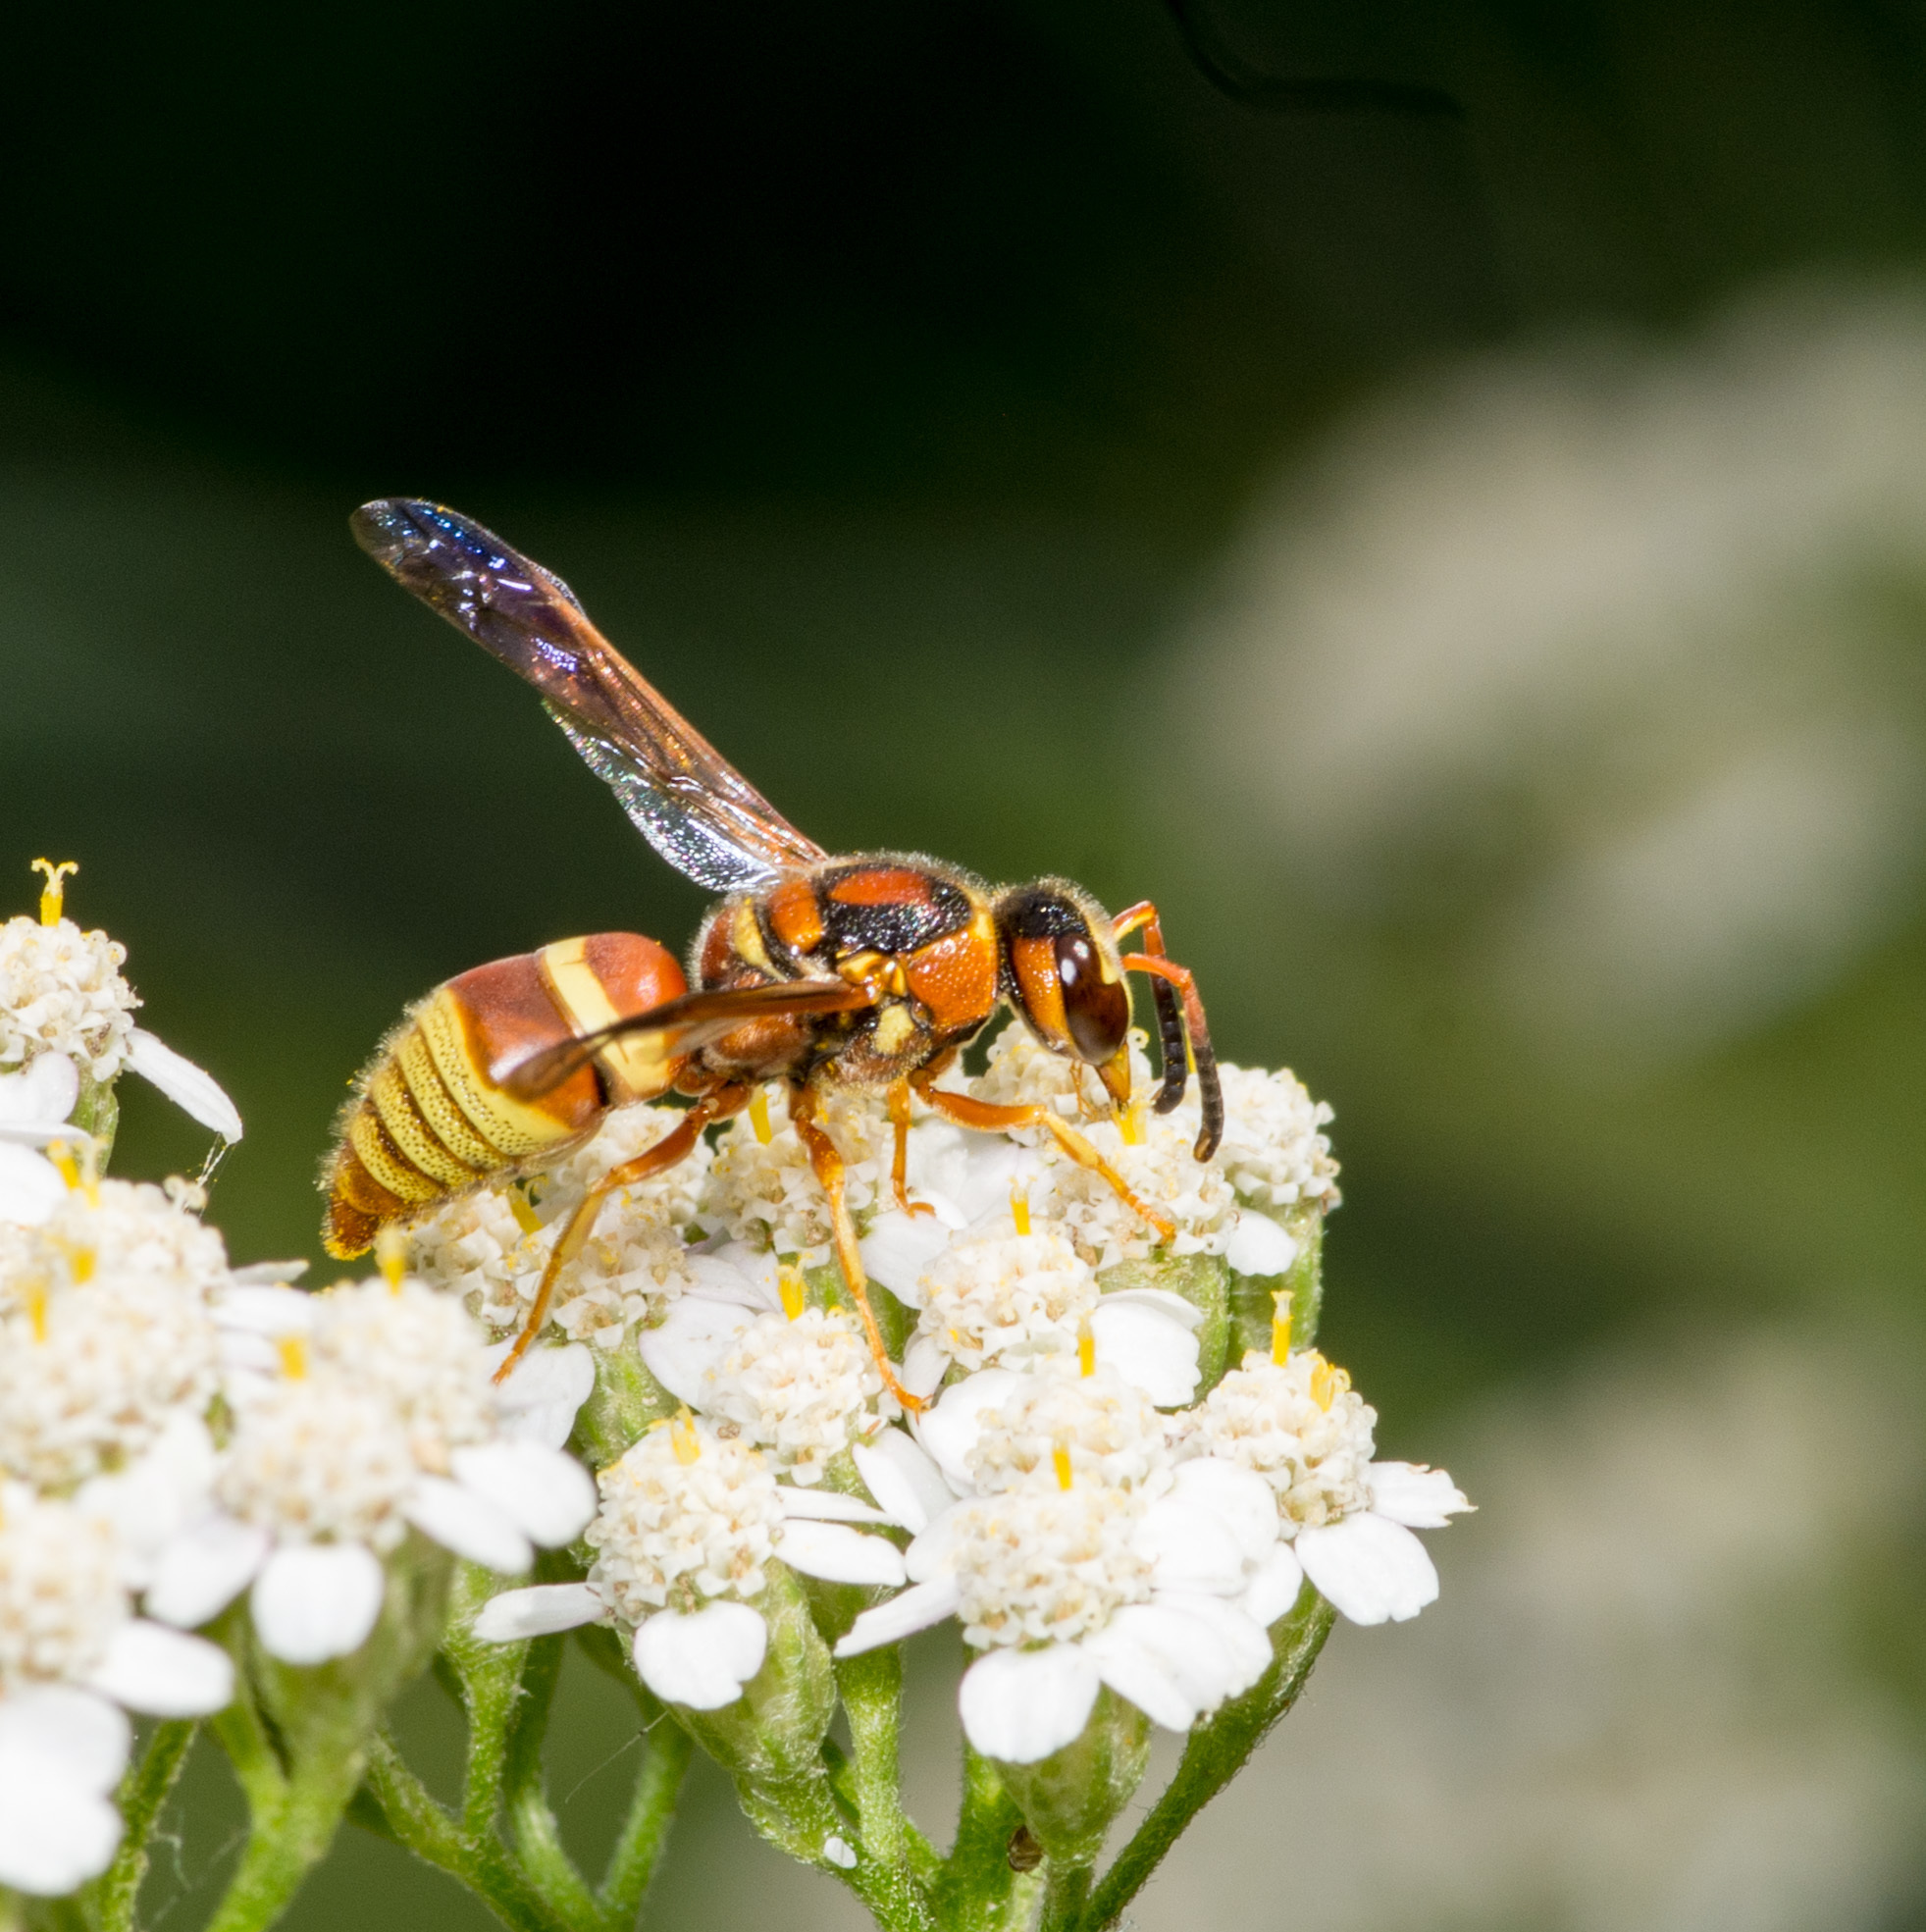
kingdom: Animalia
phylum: Arthropoda
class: Insecta
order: Hymenoptera
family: Eumenidae
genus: Euodynerus
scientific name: Euodynerus pratensis
